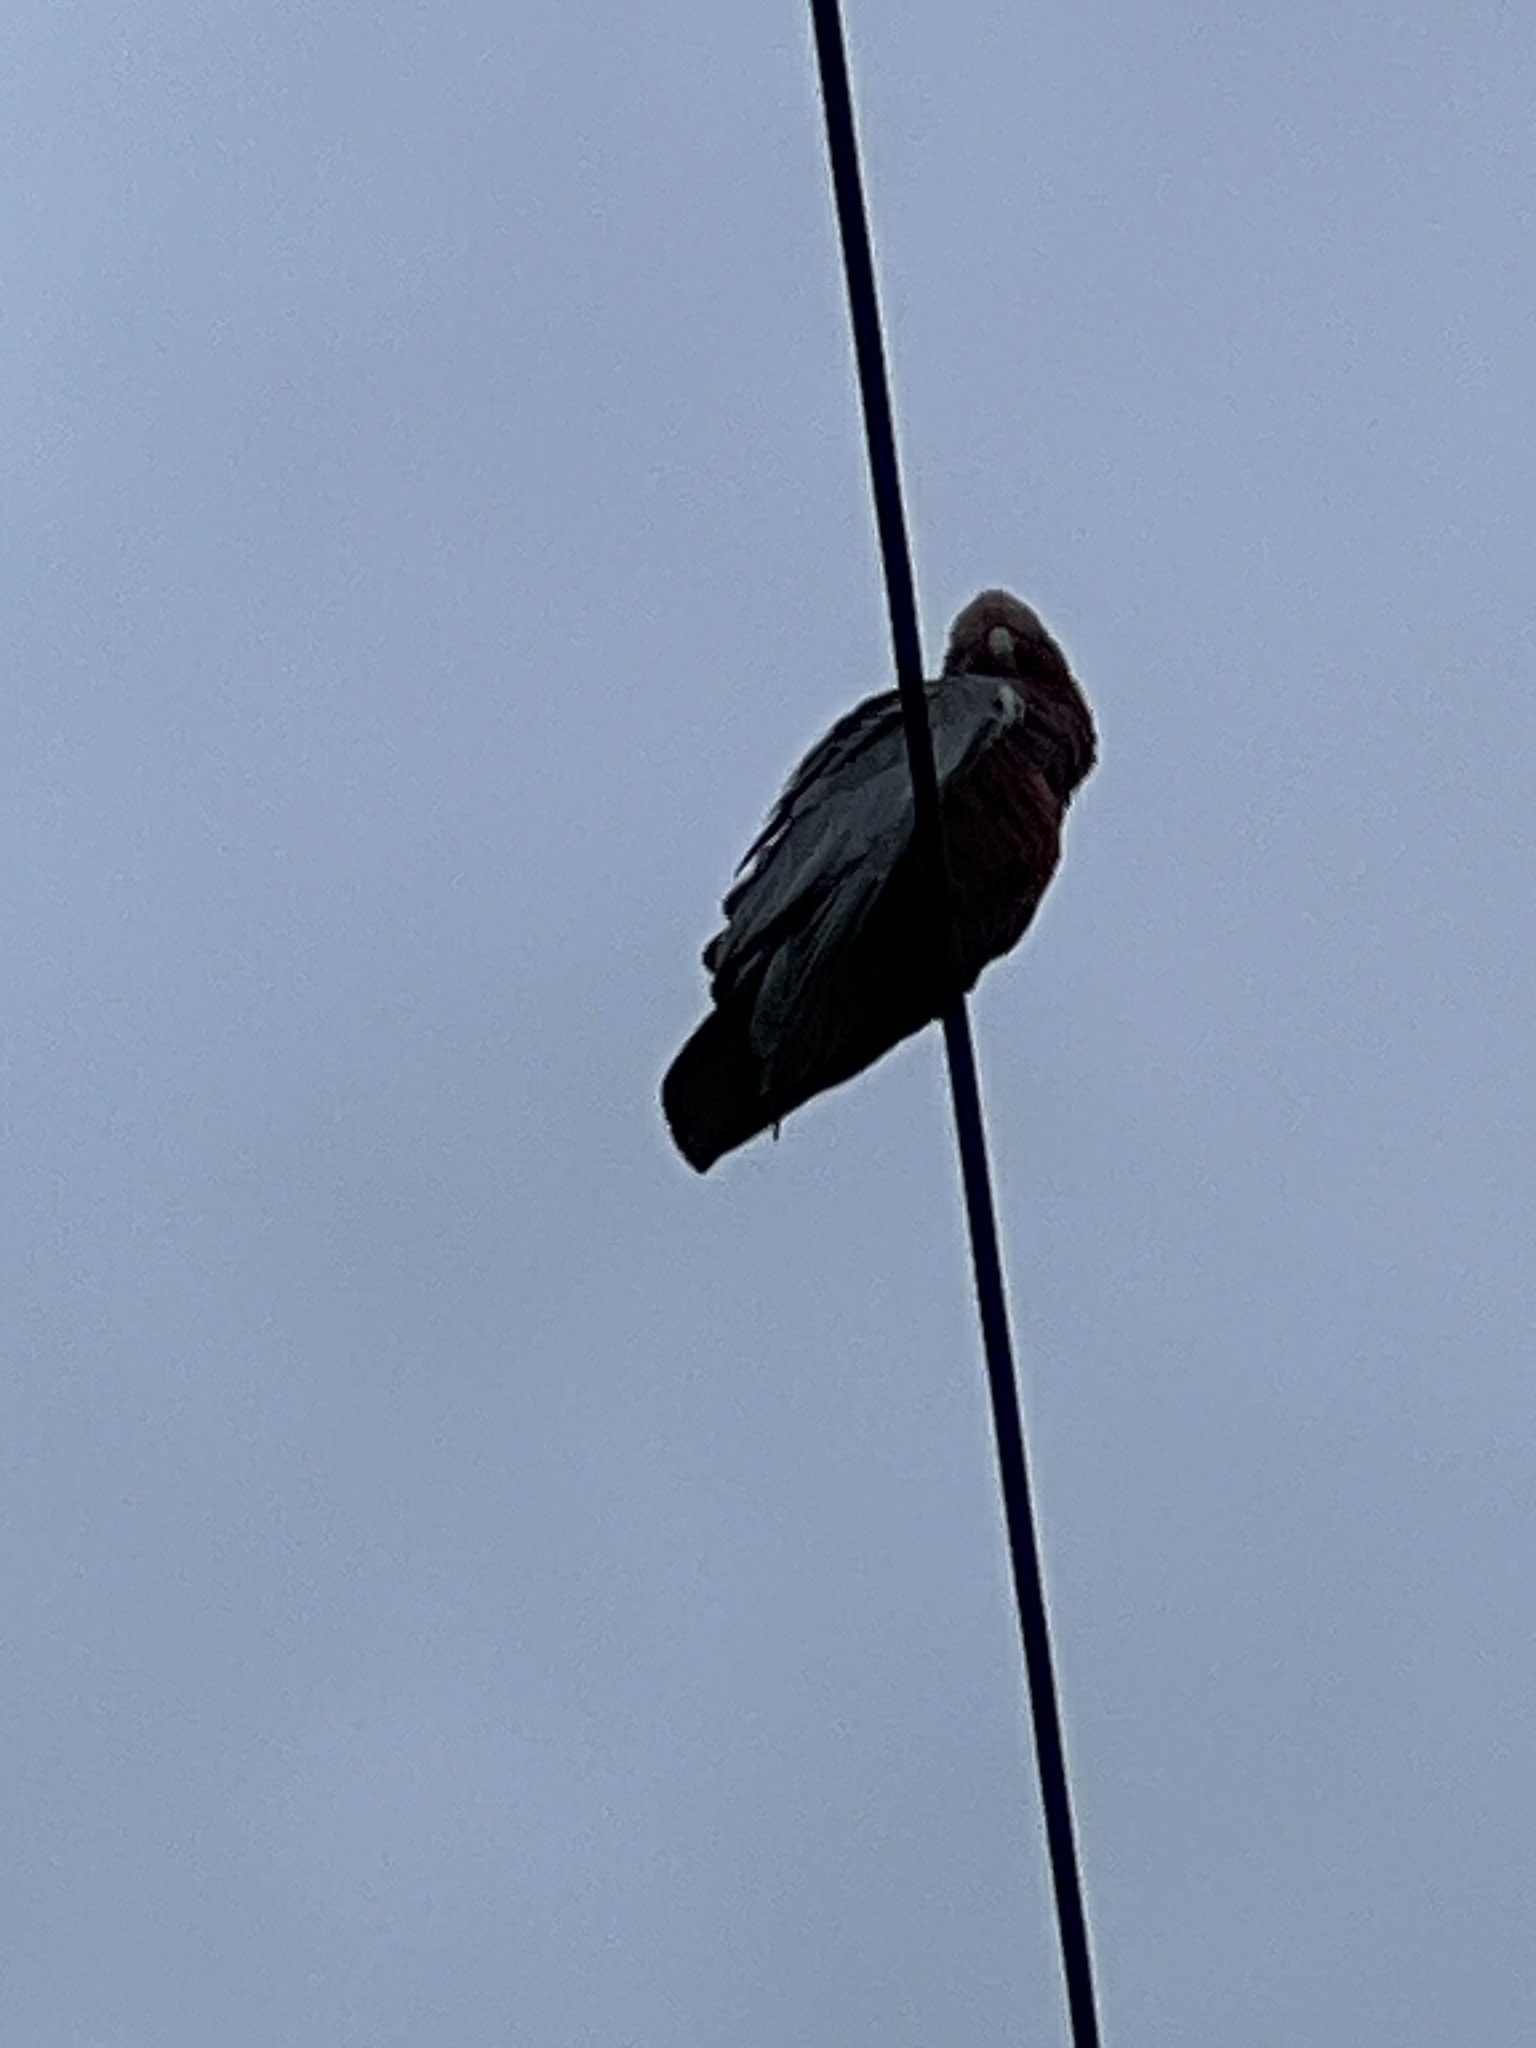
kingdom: Animalia
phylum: Chordata
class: Aves
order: Psittaciformes
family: Psittacidae
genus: Eolophus
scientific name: Eolophus roseicapilla
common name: Galah
